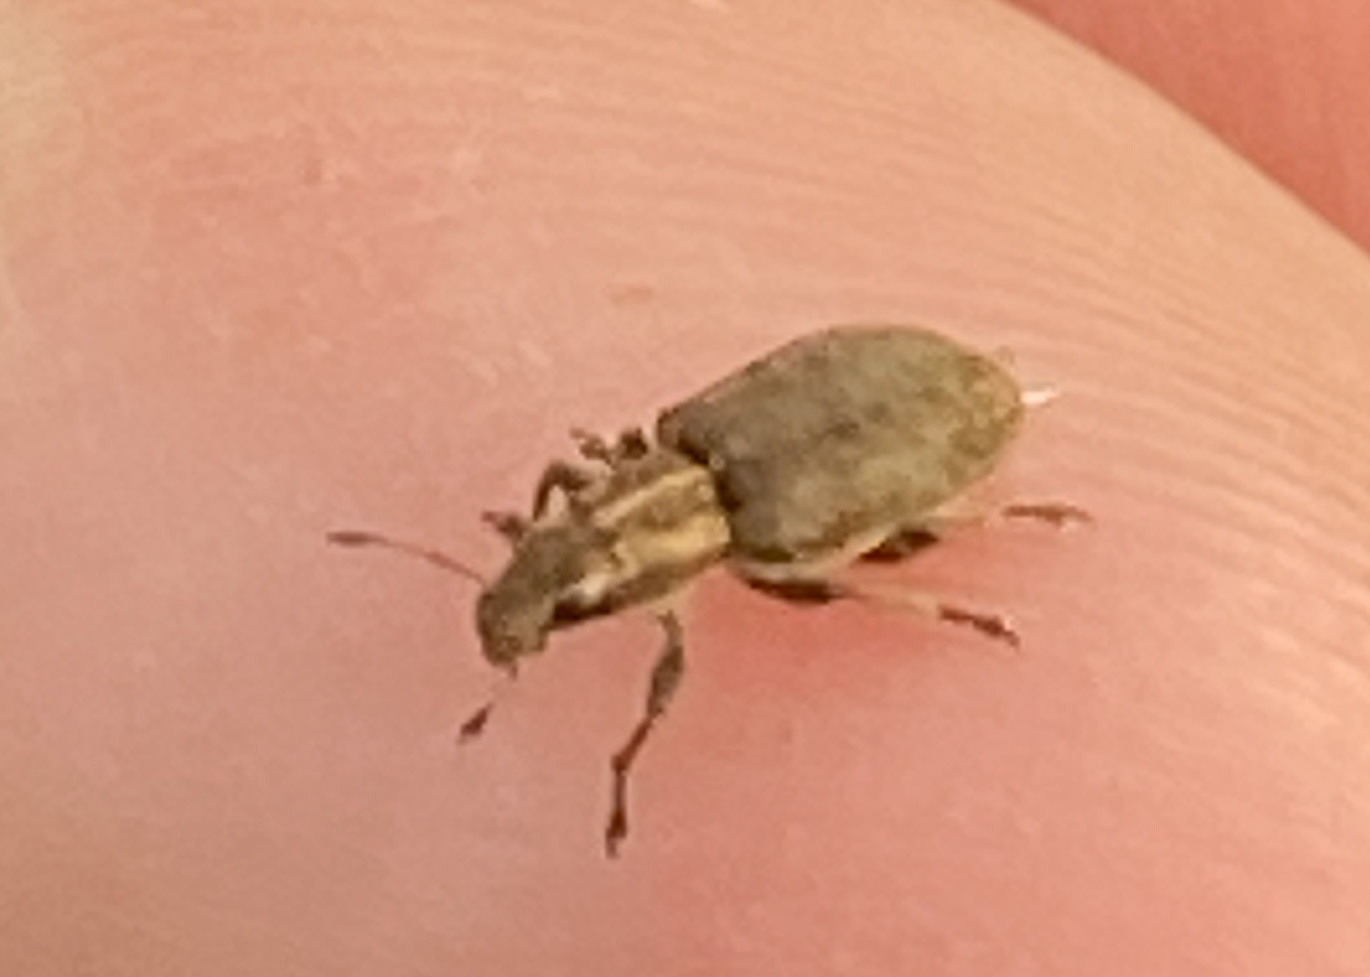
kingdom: Animalia
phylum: Arthropoda
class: Insecta
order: Coleoptera
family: Curculionidae
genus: Sitona
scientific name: Sitona obsoletus
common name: Weevil
